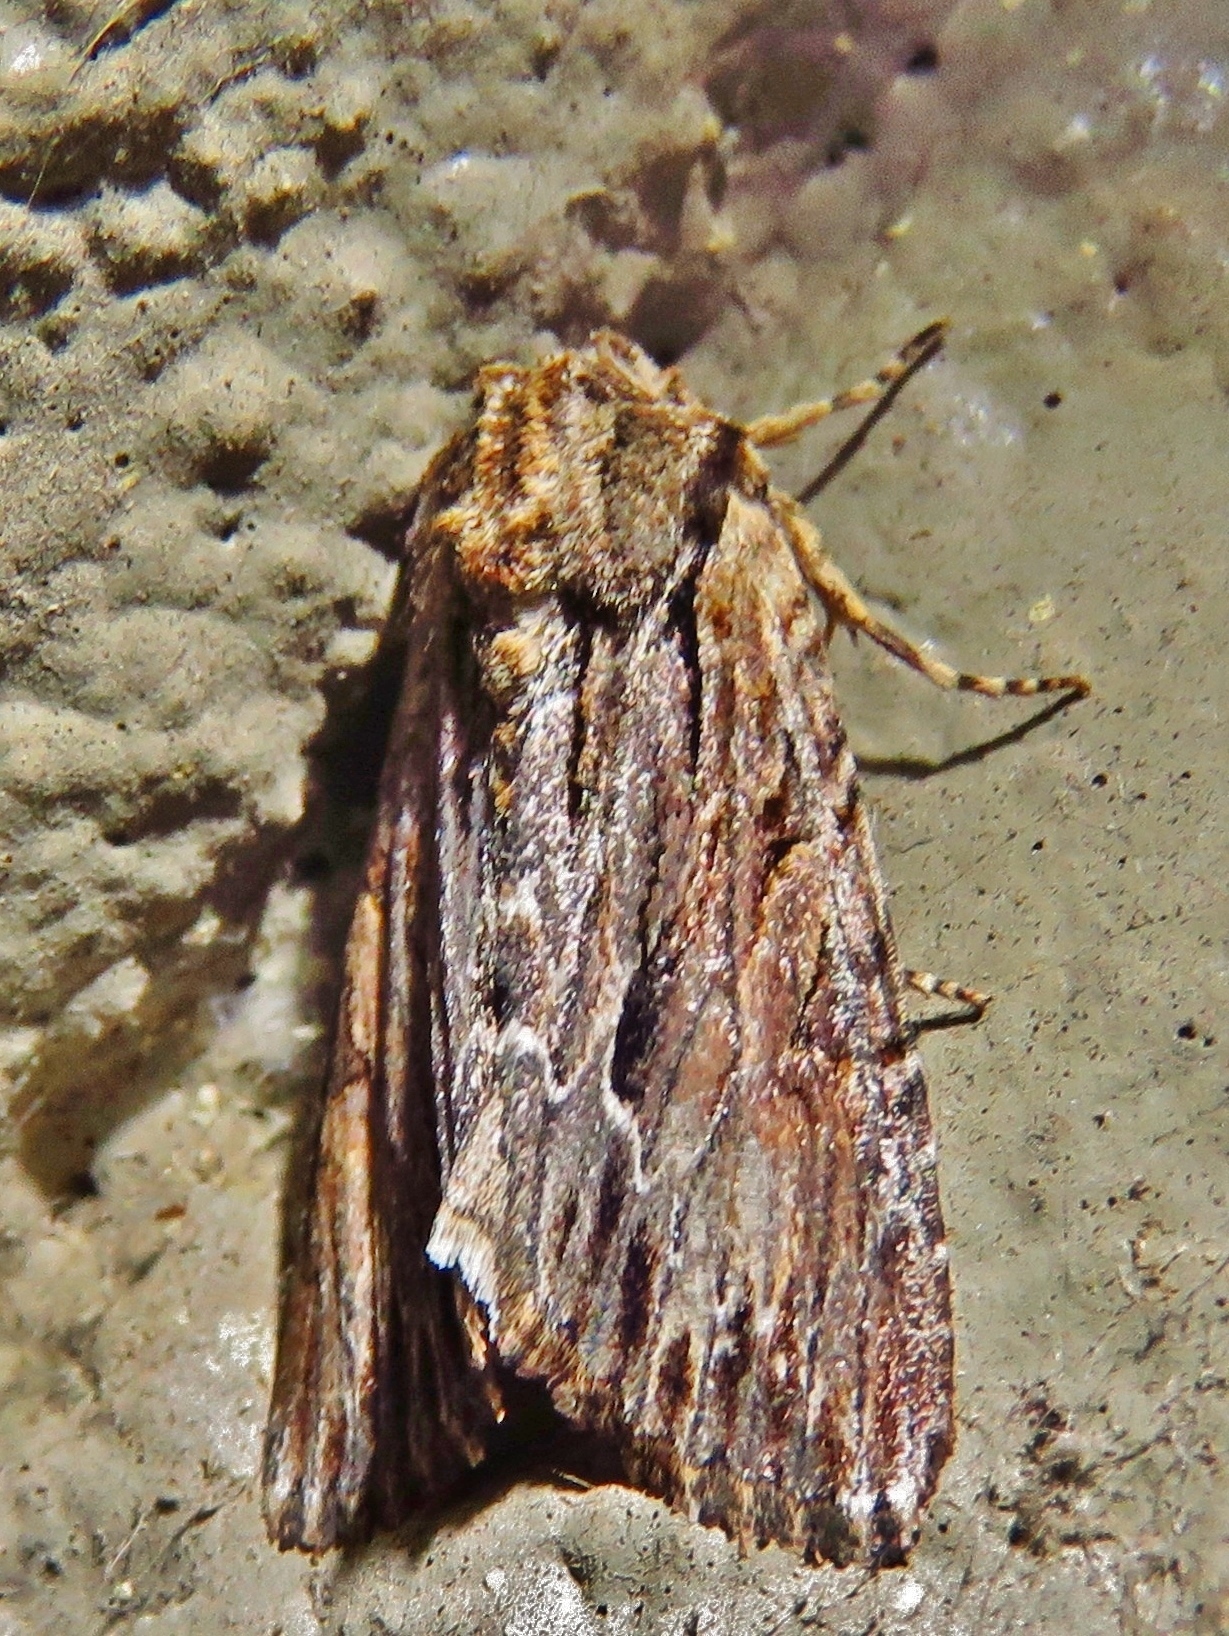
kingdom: Animalia
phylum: Arthropoda
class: Insecta
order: Lepidoptera
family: Noctuidae
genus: Achatia
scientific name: Achatia mucens
